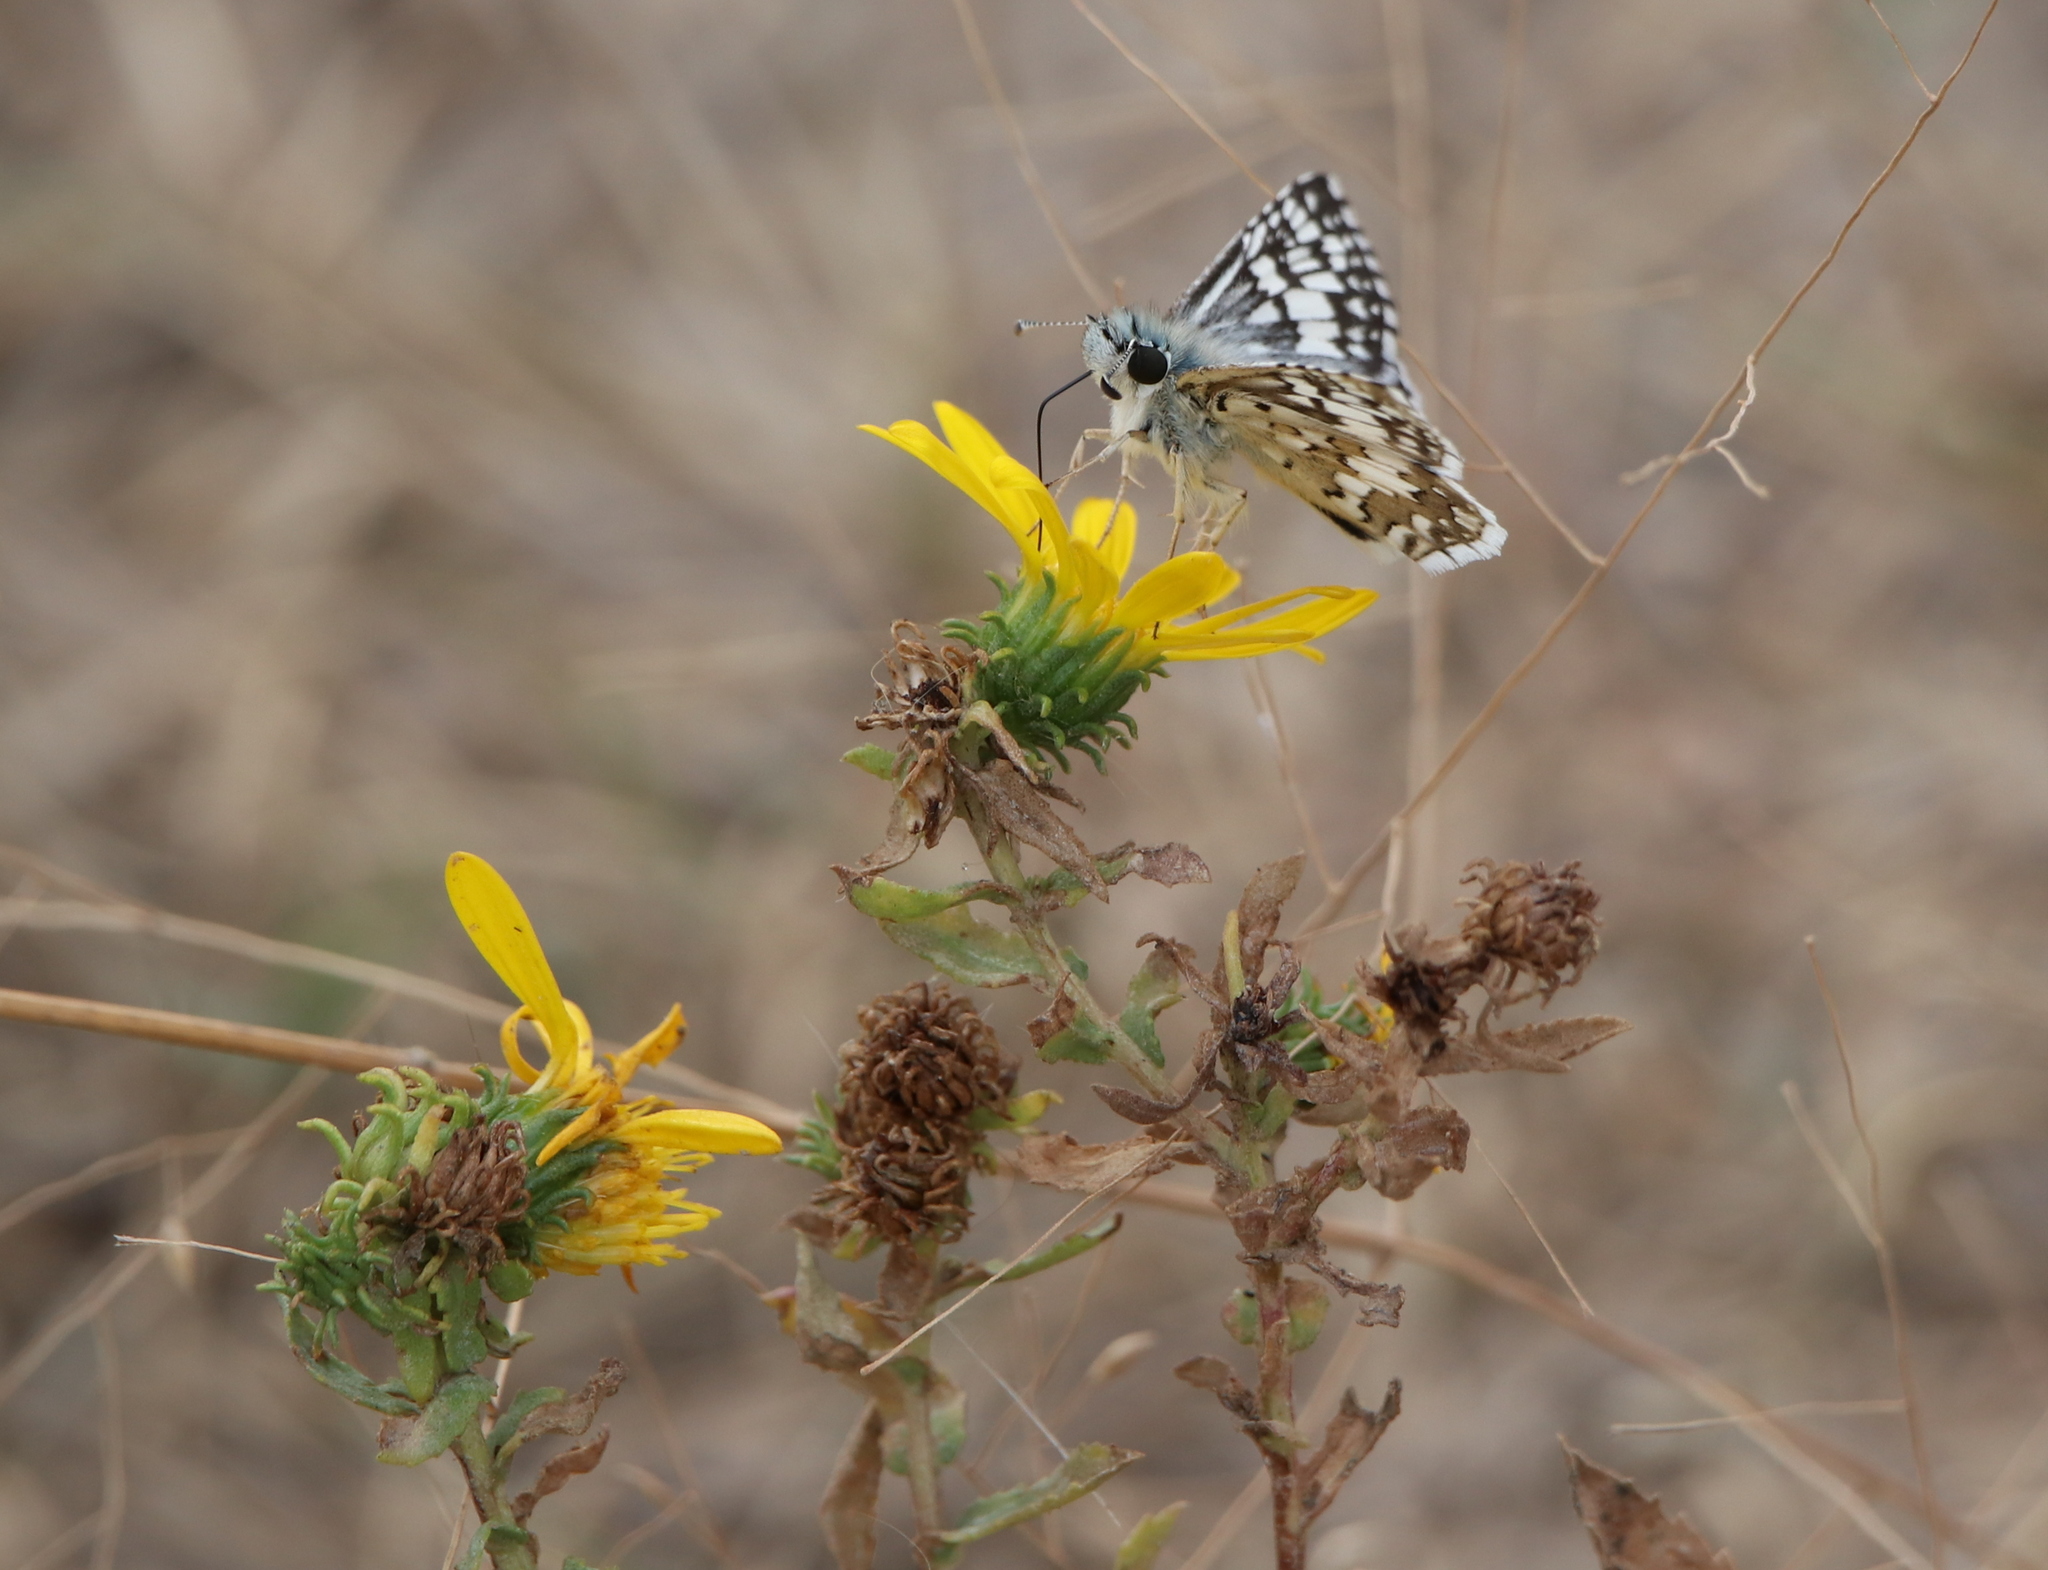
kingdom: Animalia
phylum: Arthropoda
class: Insecta
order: Lepidoptera
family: Hesperiidae
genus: Burnsius
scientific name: Burnsius communis
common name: Common checkered-skipper
